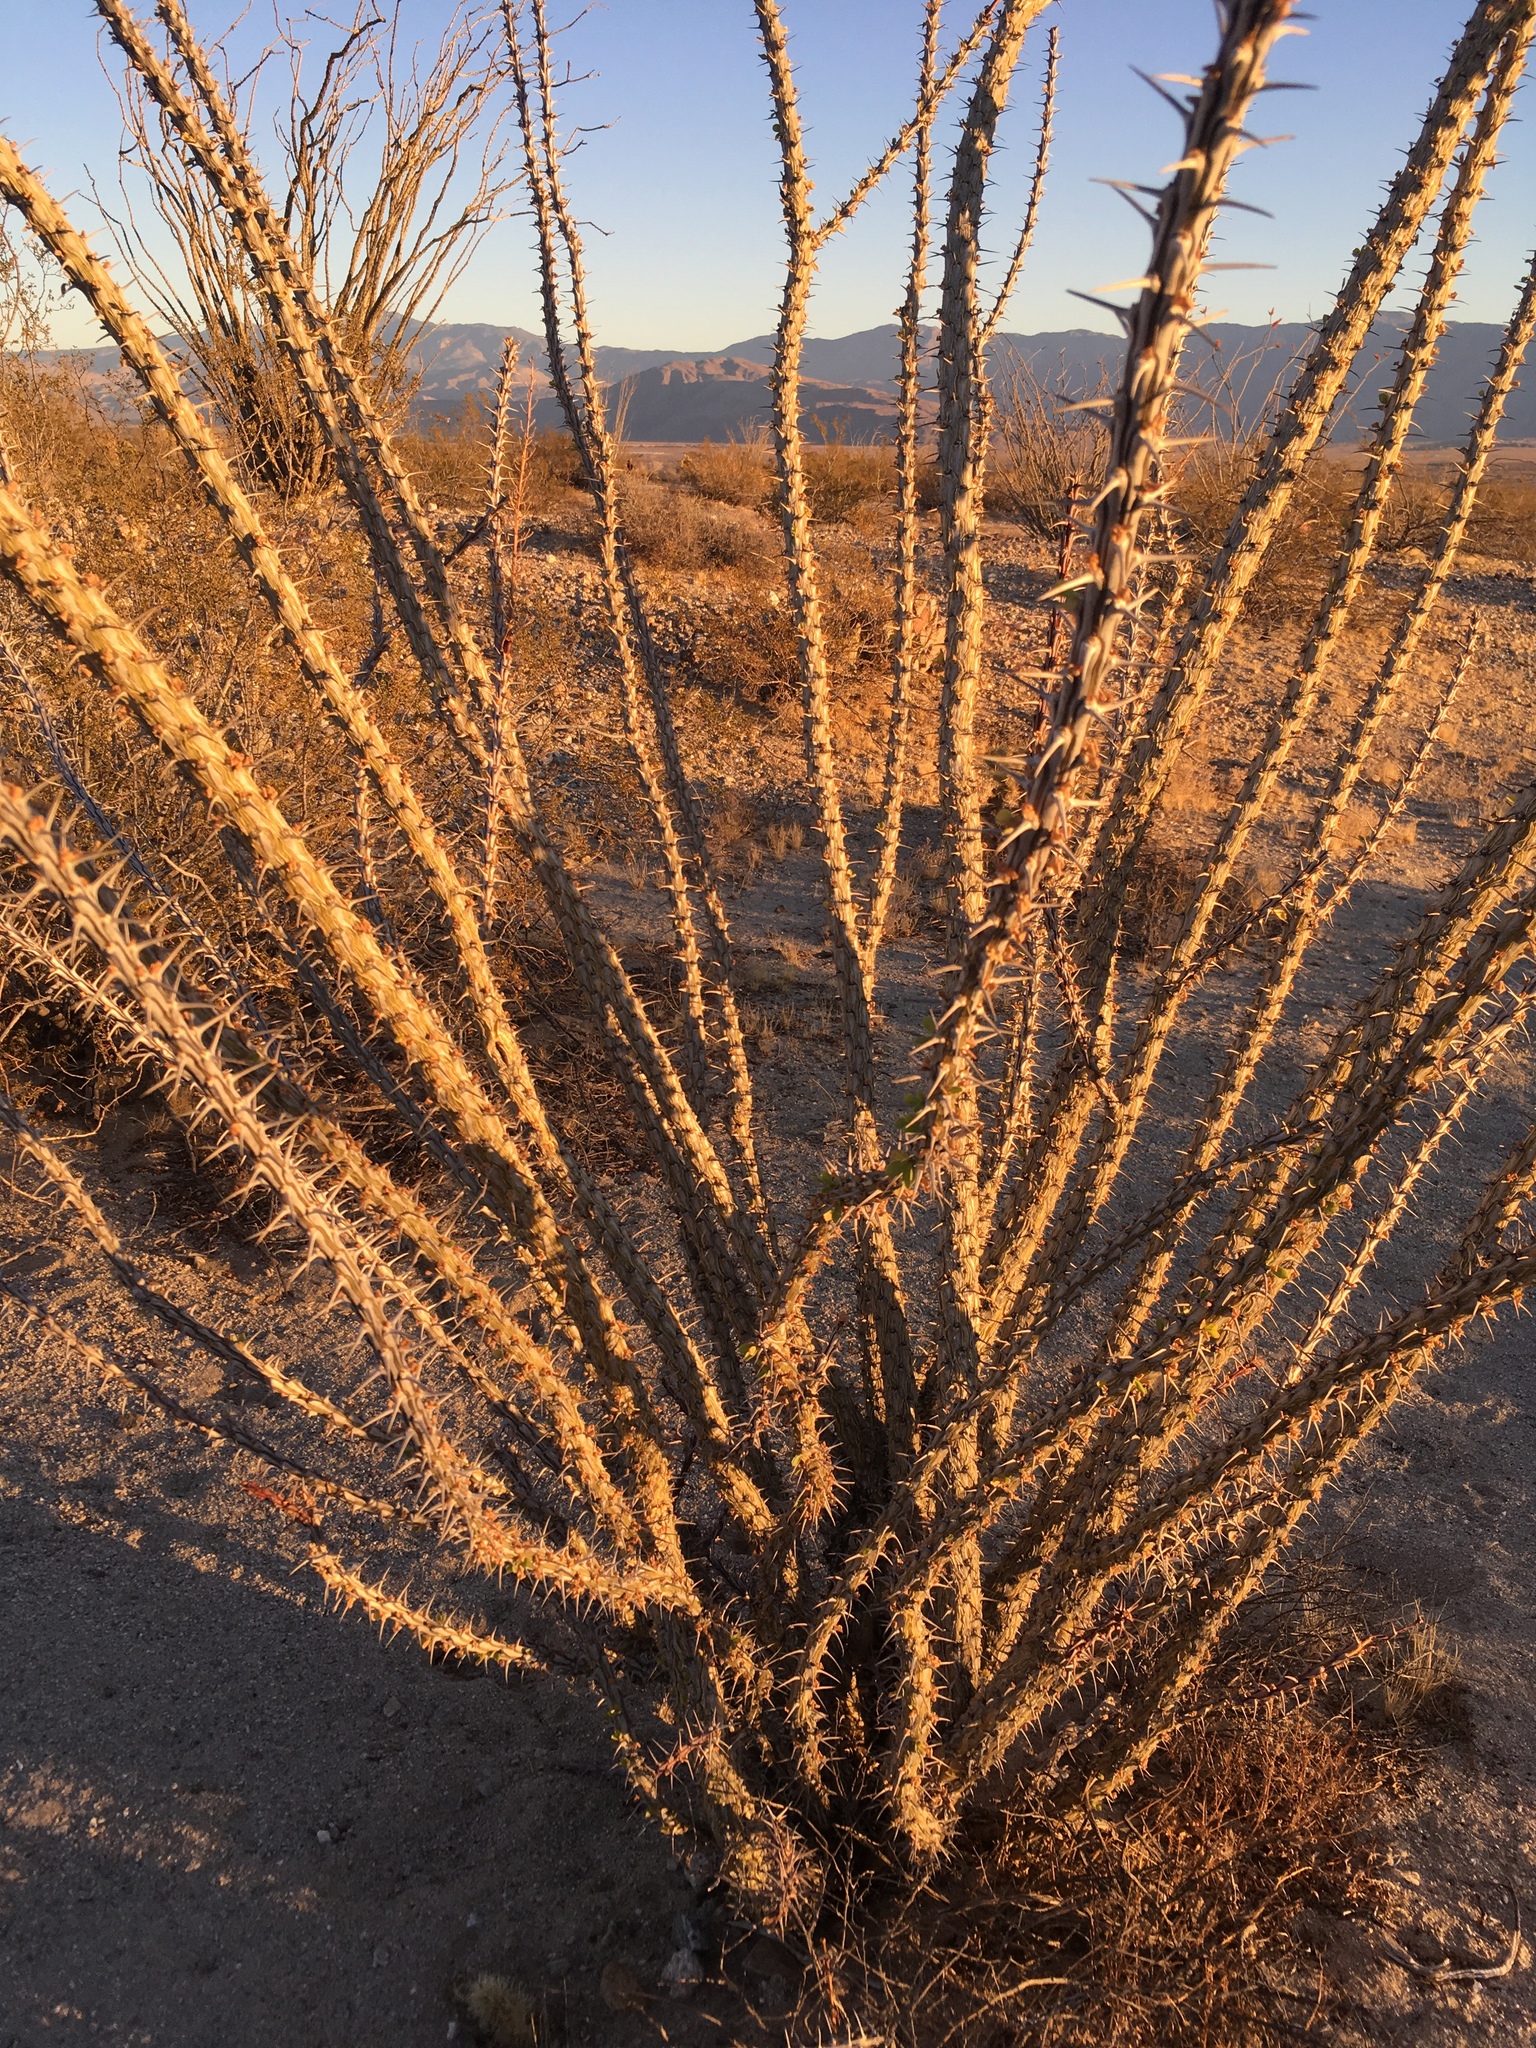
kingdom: Plantae
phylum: Tracheophyta
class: Magnoliopsida
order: Ericales
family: Fouquieriaceae
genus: Fouquieria
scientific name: Fouquieria splendens
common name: Vine-cactus
